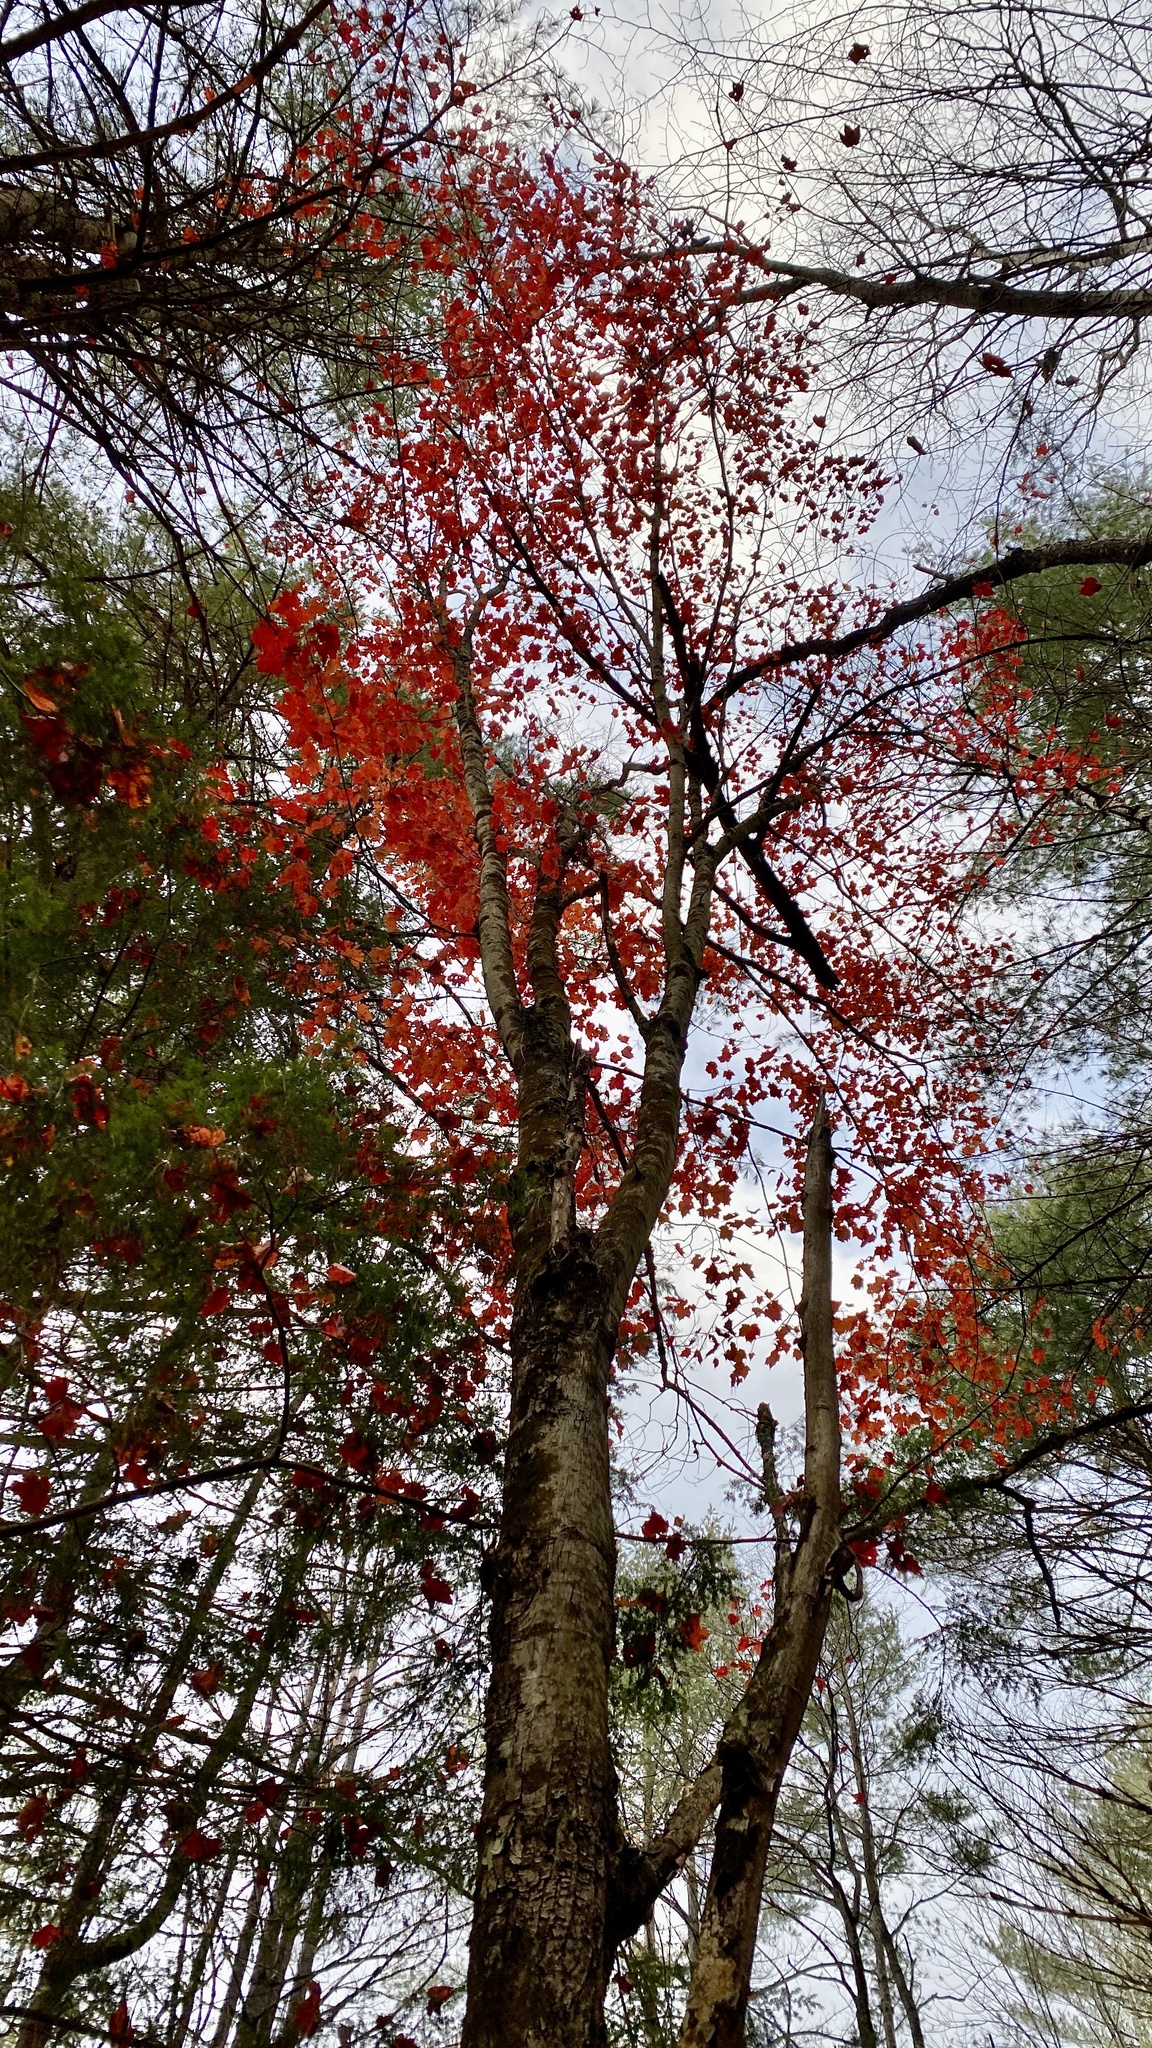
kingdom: Plantae
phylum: Tracheophyta
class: Magnoliopsida
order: Sapindales
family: Sapindaceae
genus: Acer
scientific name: Acer rubrum
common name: Red maple
